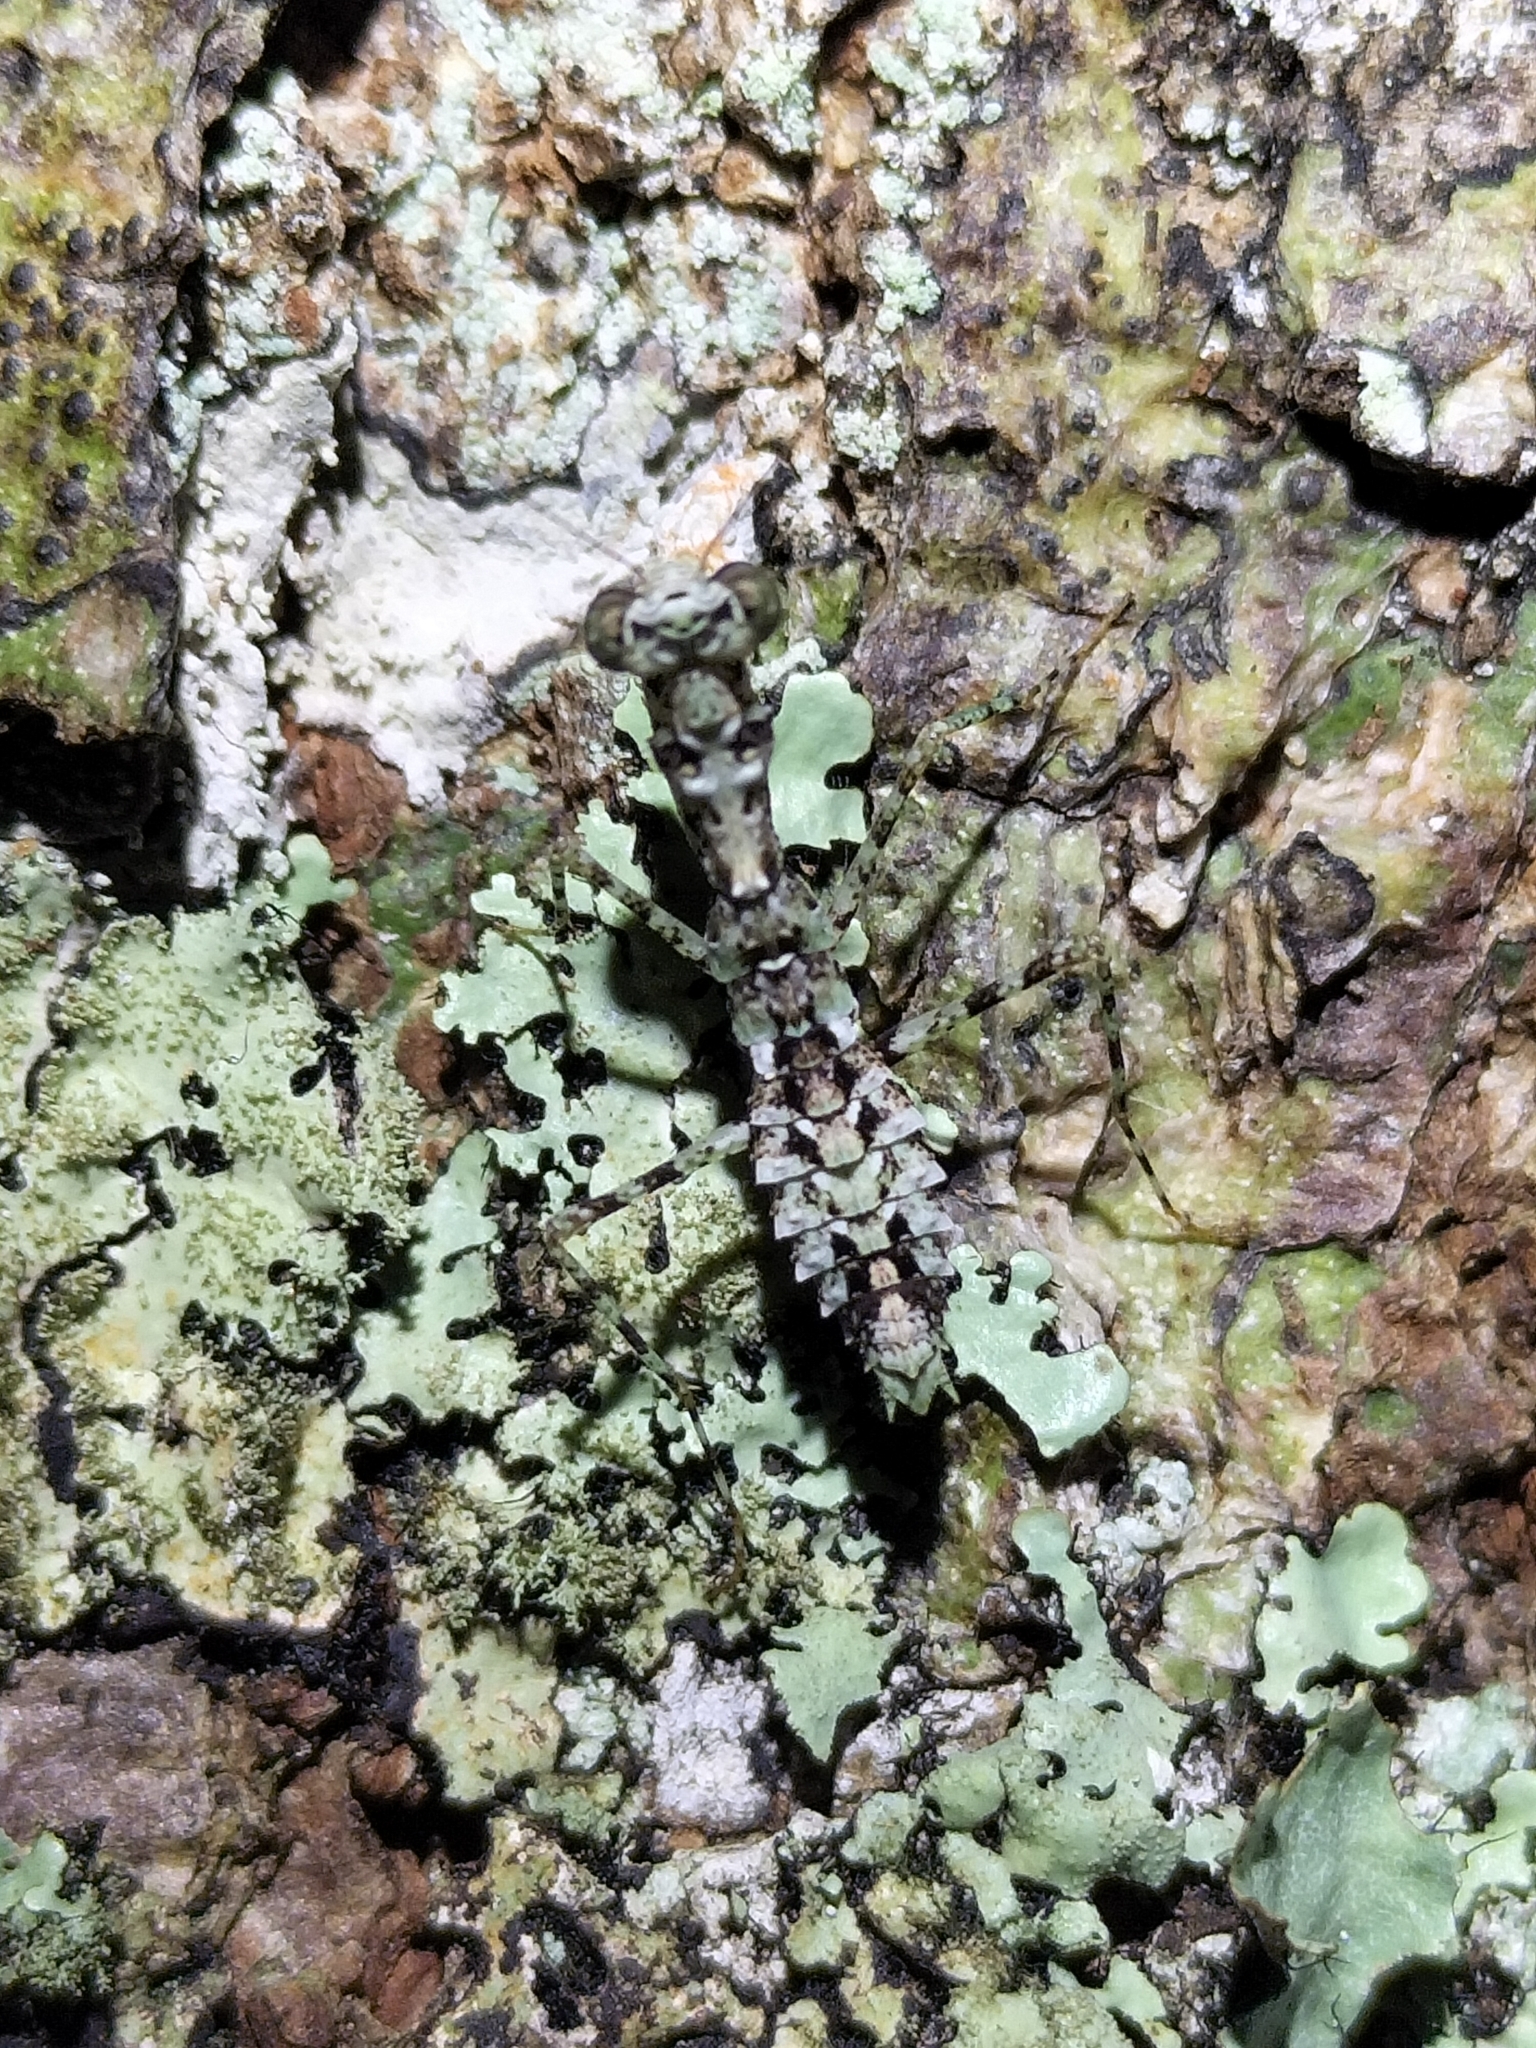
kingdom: Animalia
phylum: Arthropoda
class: Insecta
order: Mantodea
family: Nanomantidae
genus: Calofulcinia
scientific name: Calofulcinia oxynota
